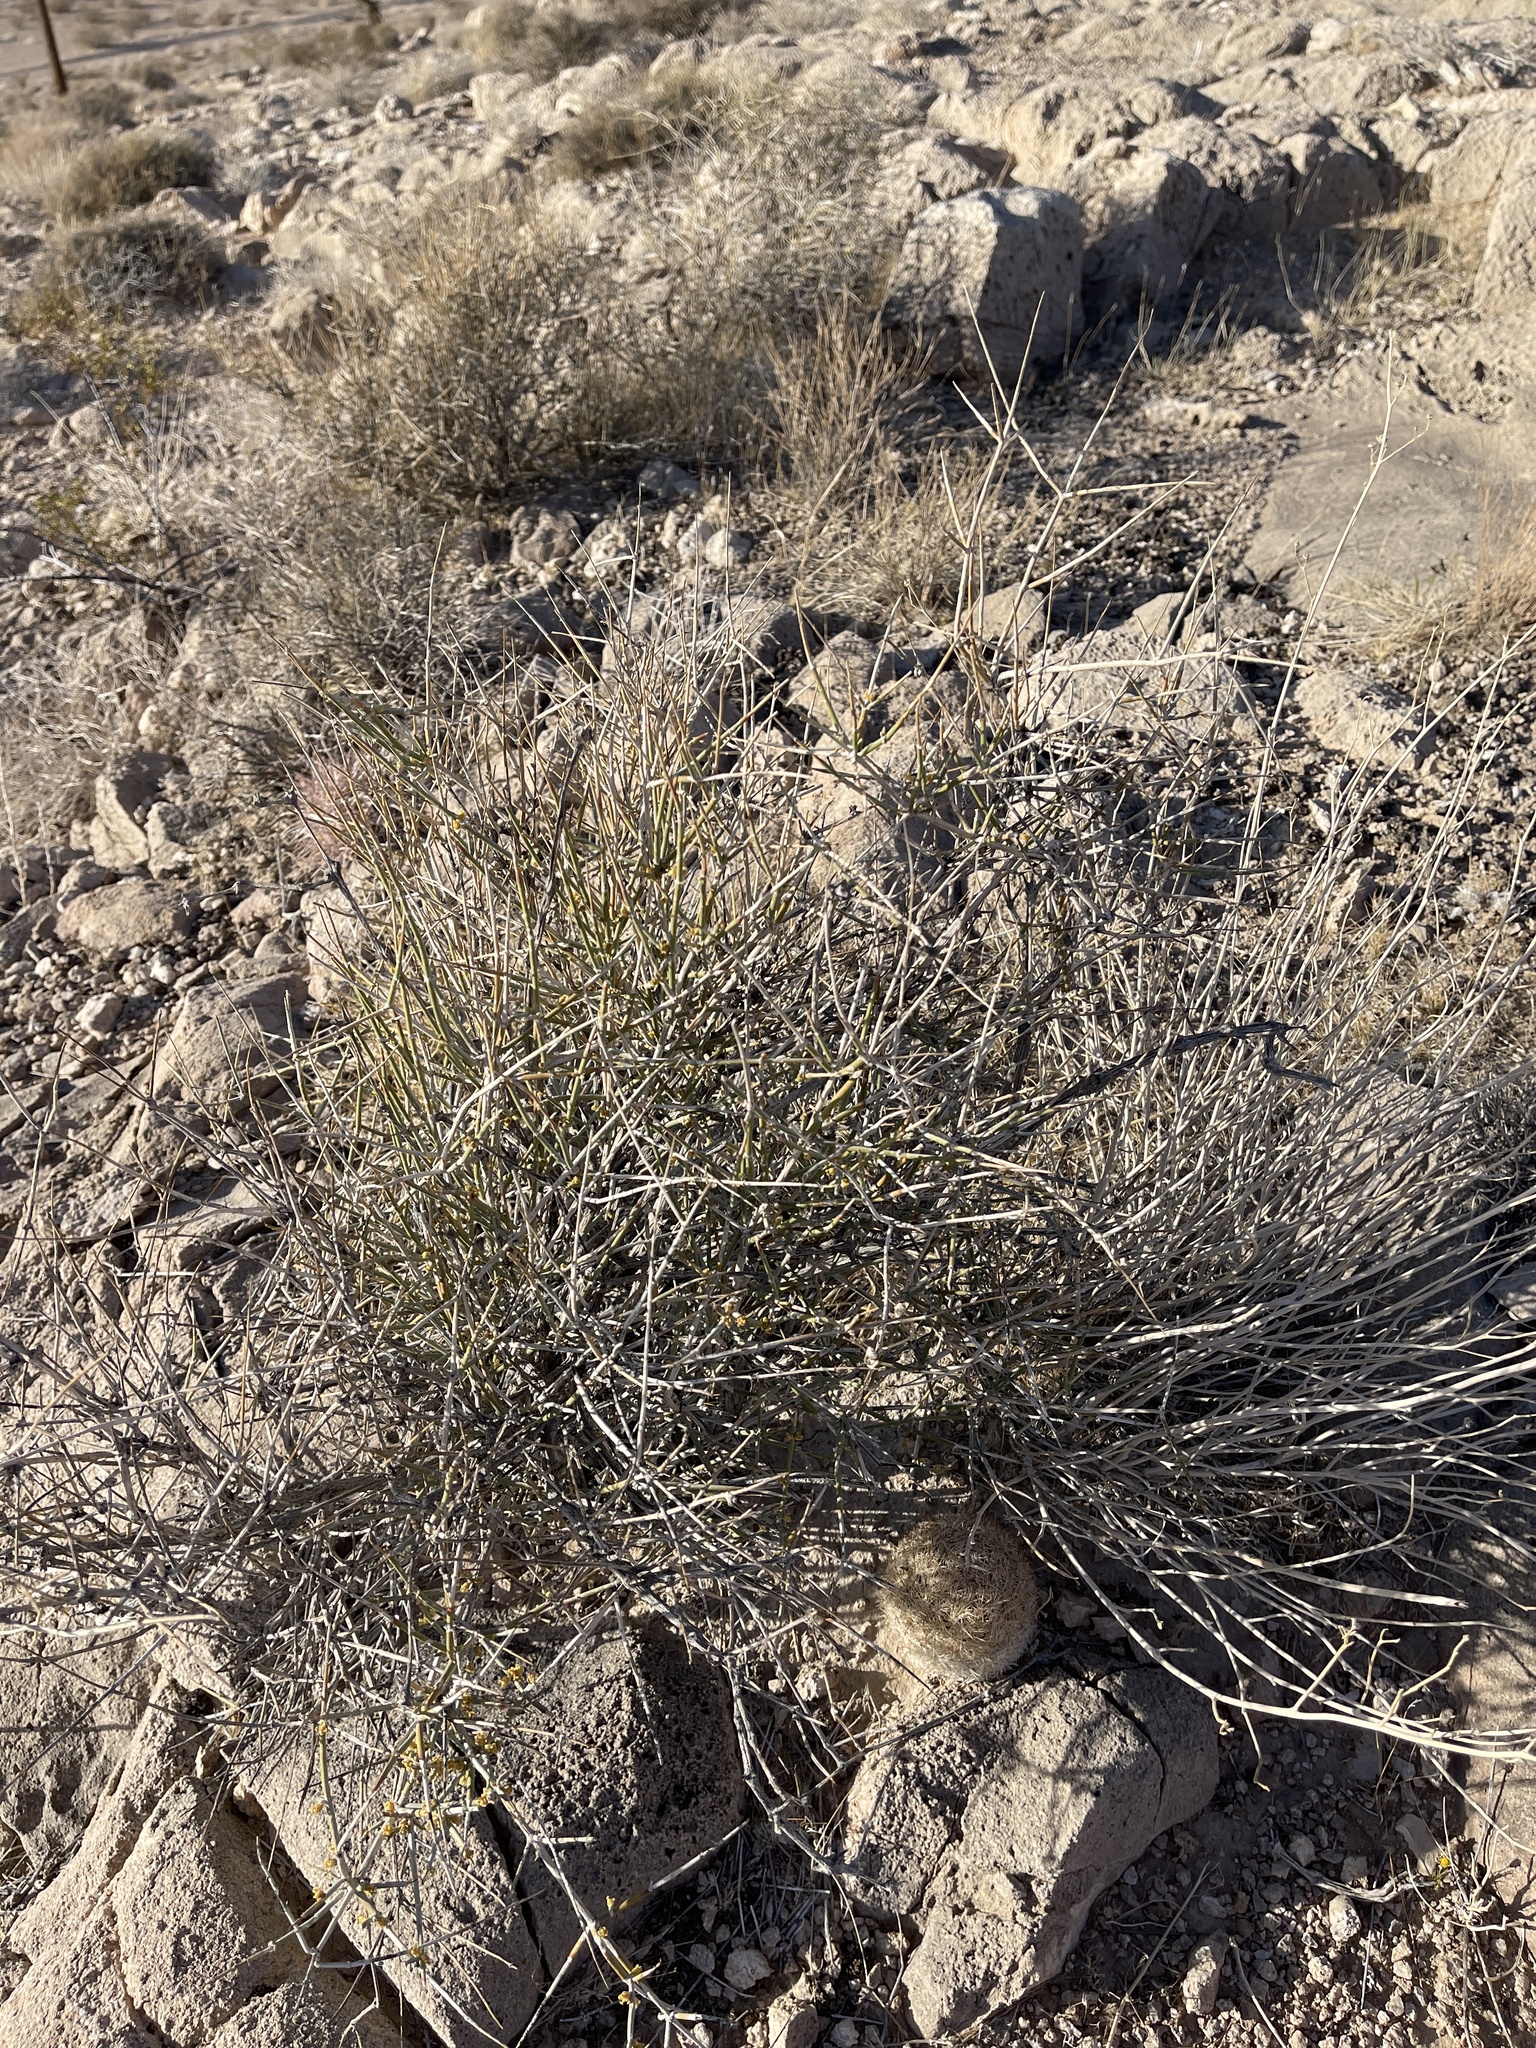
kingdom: Plantae
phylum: Tracheophyta
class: Gnetopsida
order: Ephedrales
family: Ephedraceae
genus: Ephedra
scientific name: Ephedra nevadensis
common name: Gray ephedra
